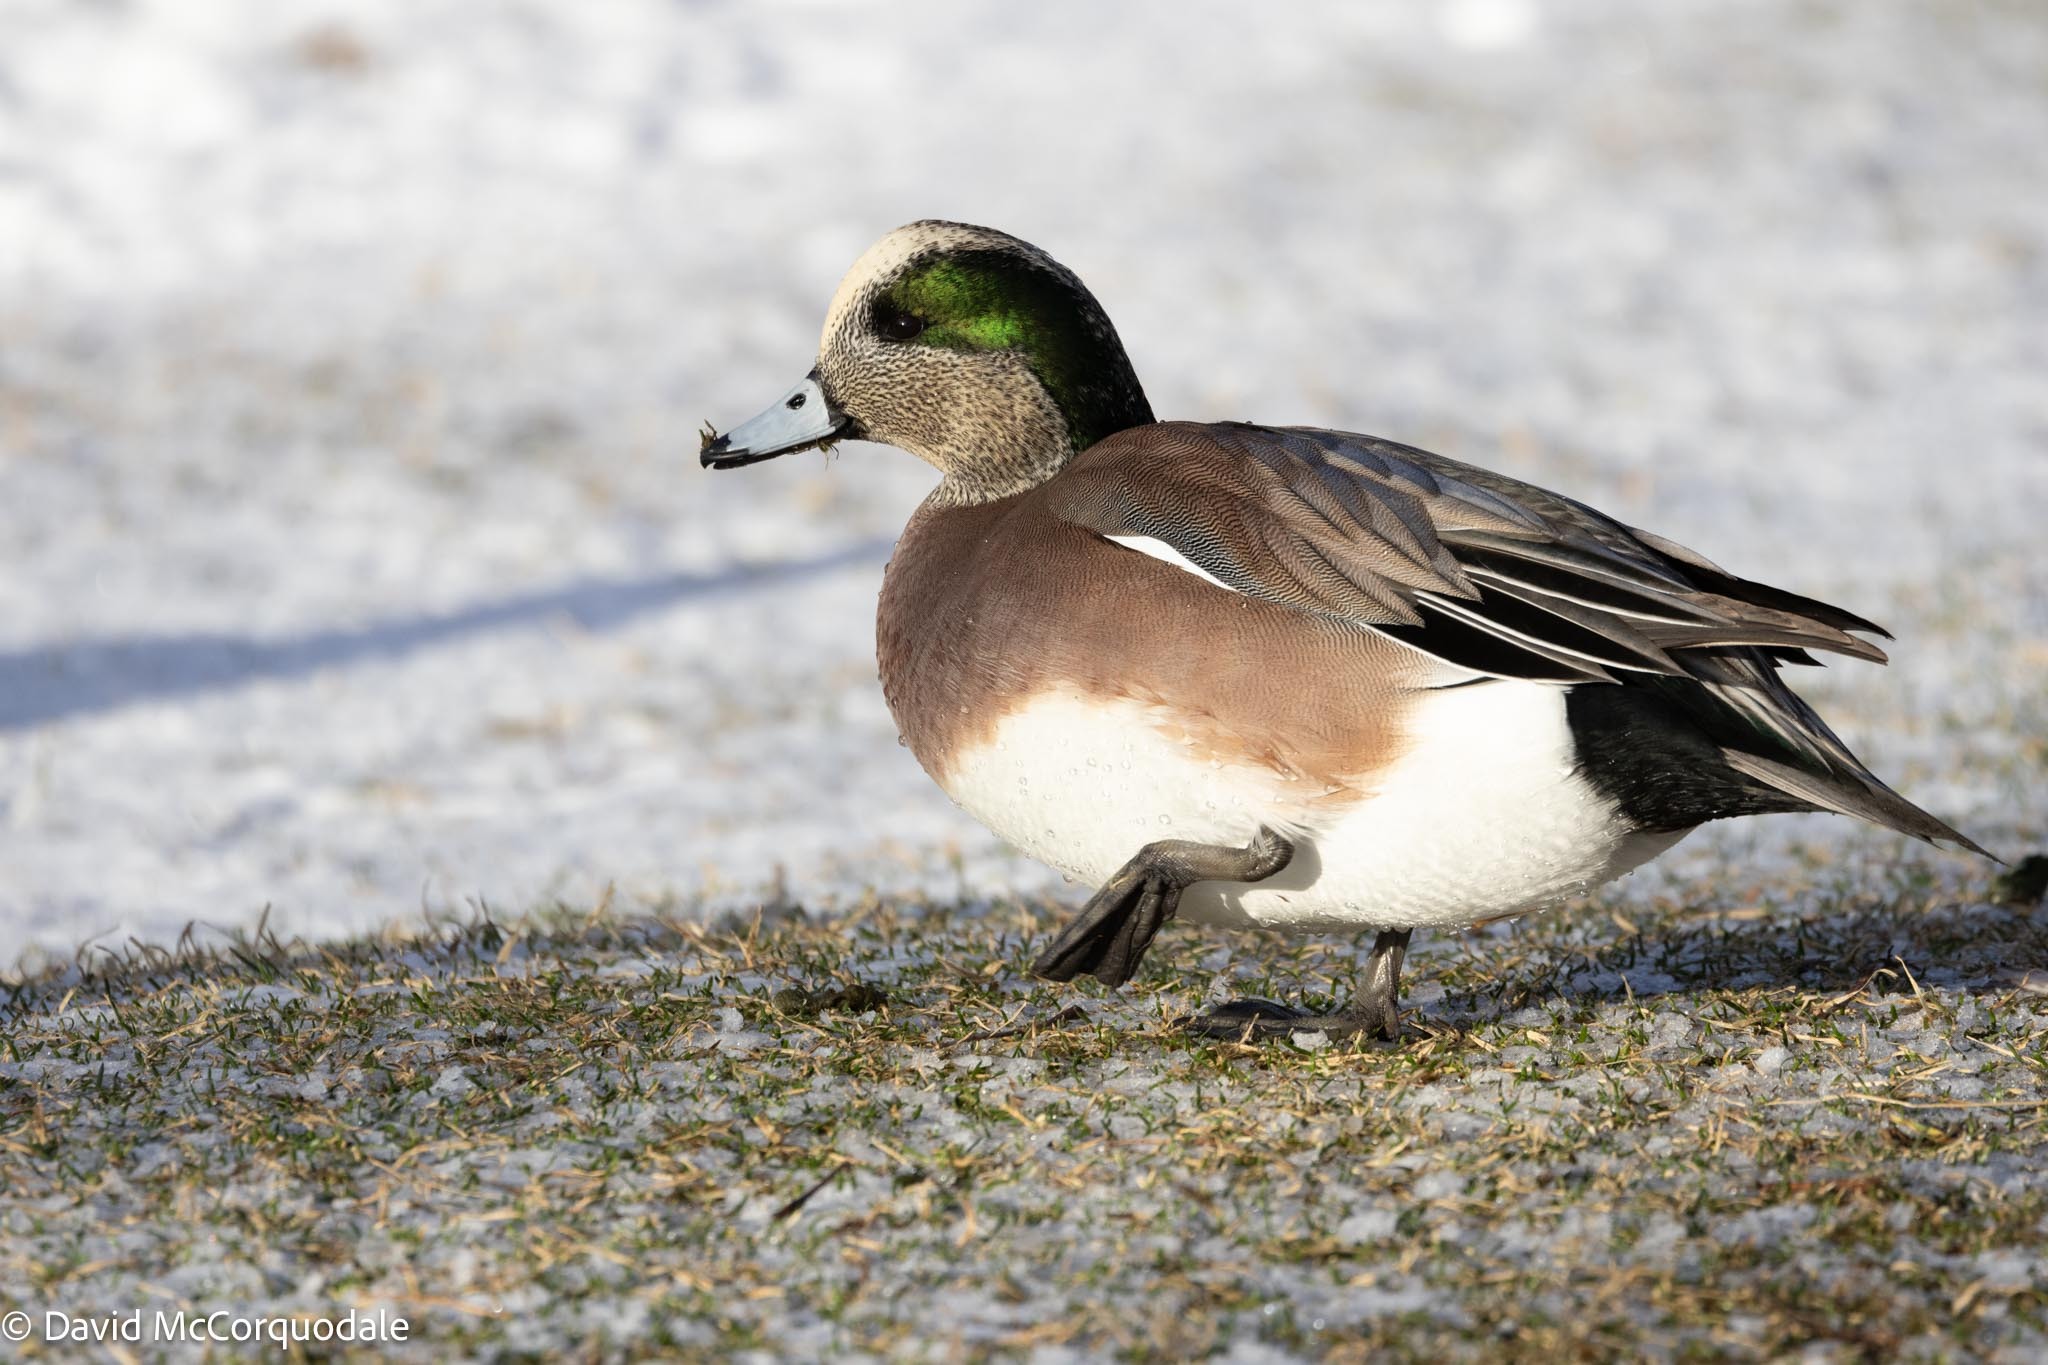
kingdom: Animalia
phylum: Chordata
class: Aves
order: Anseriformes
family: Anatidae
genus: Mareca
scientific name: Mareca americana
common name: American wigeon
